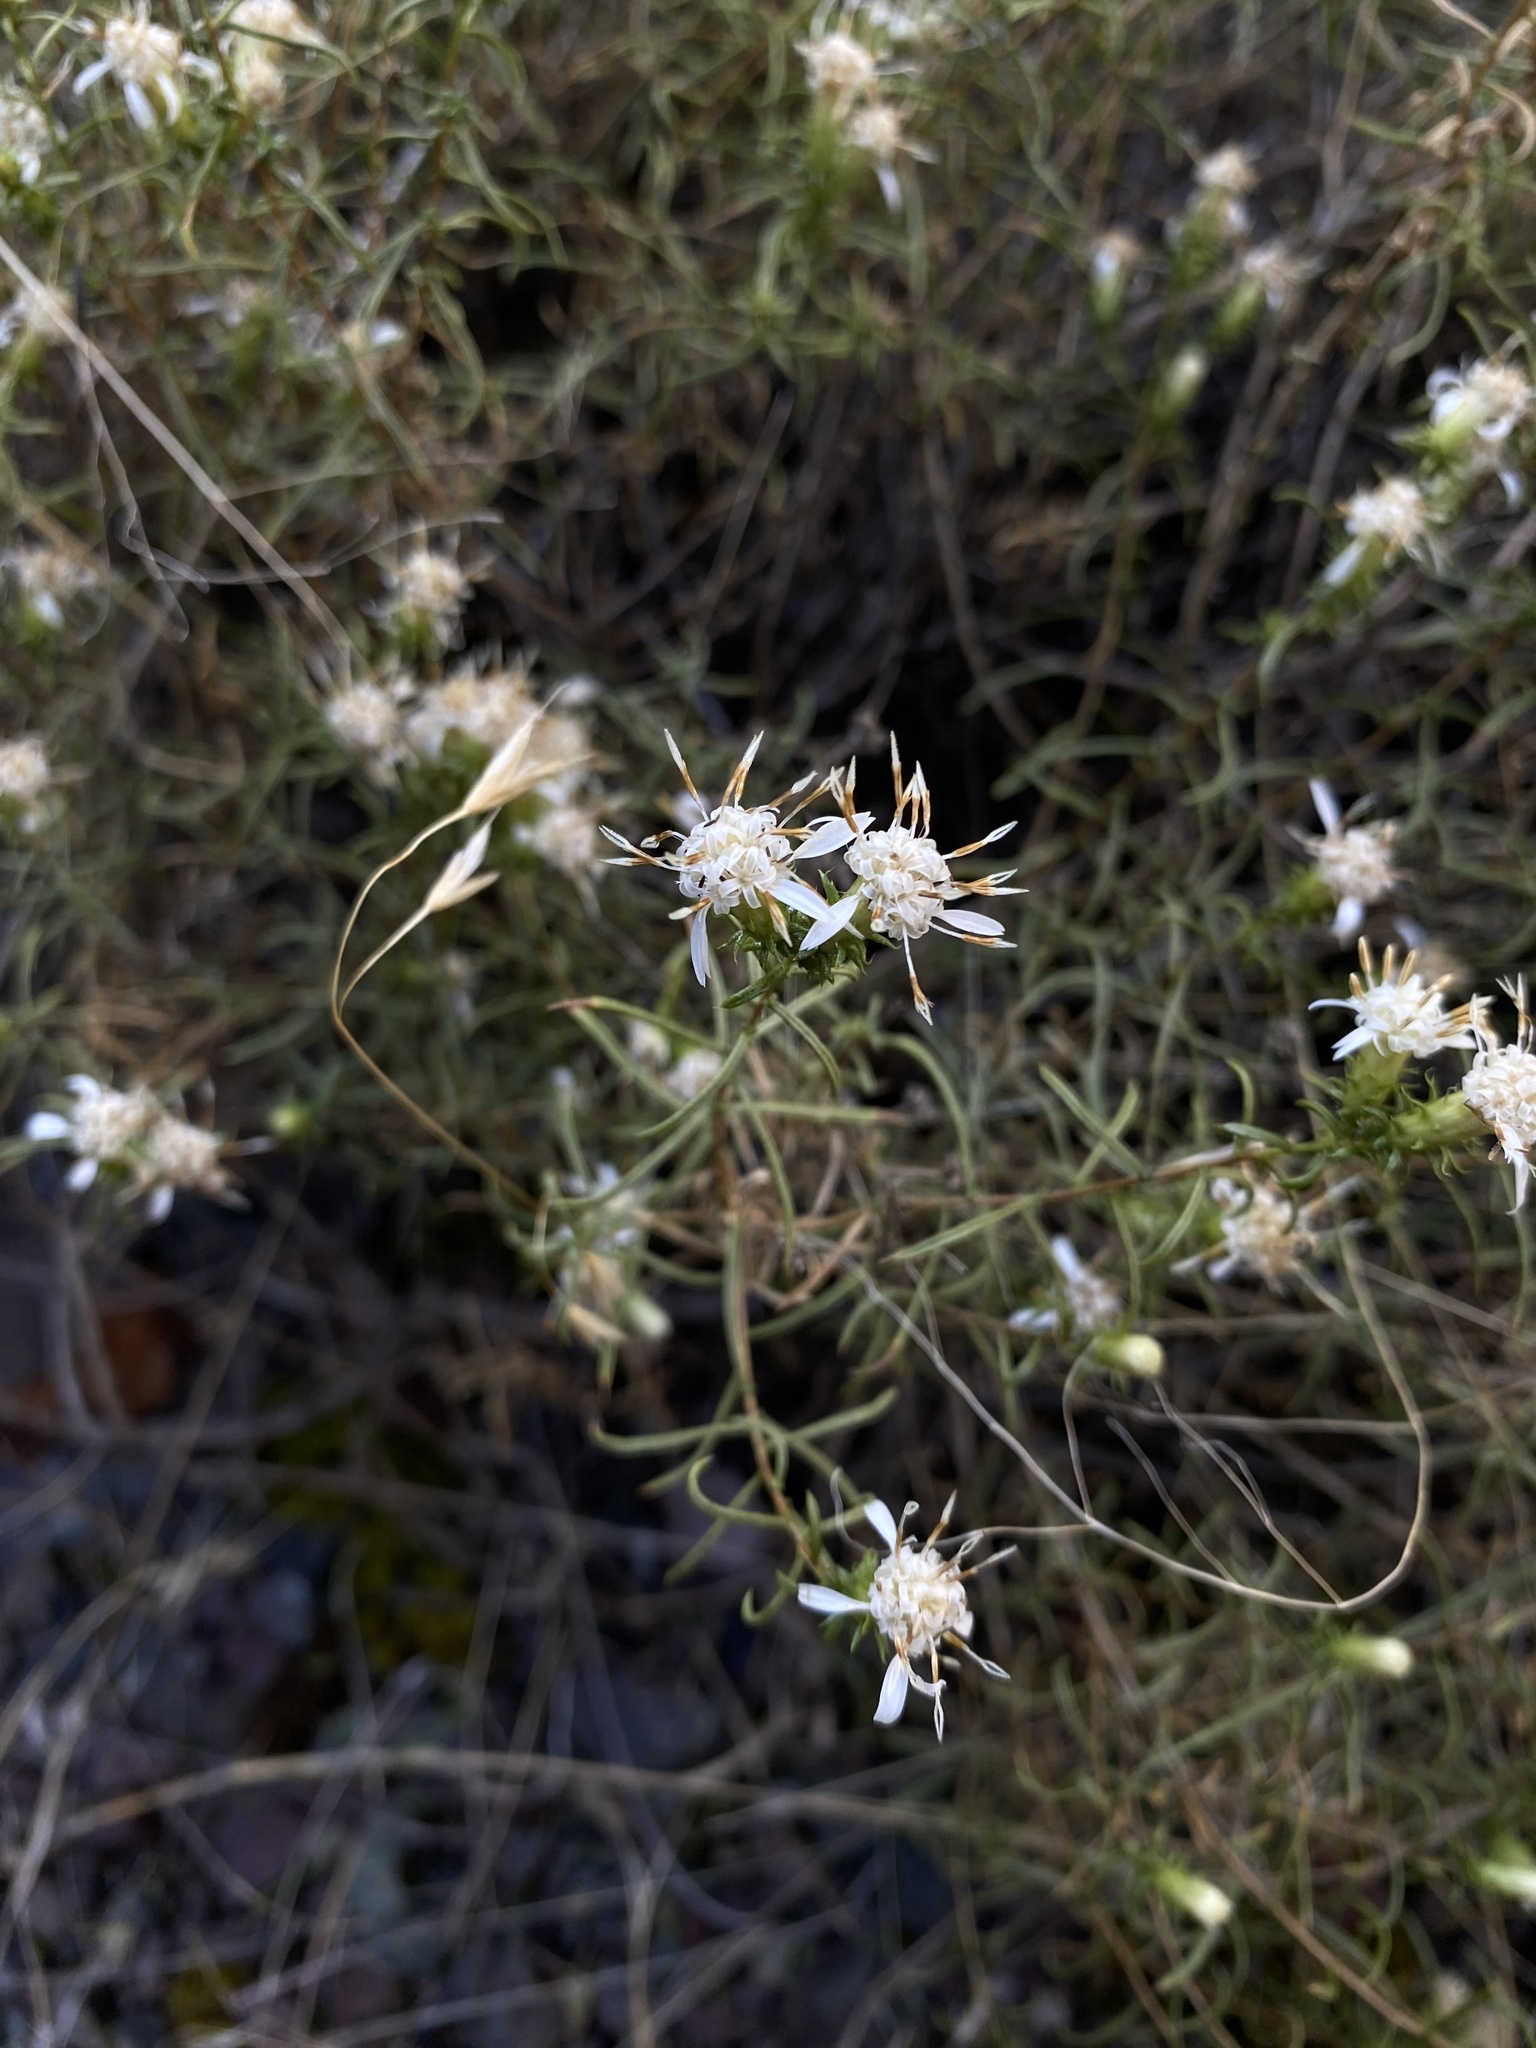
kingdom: Plantae
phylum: Tracheophyta
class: Magnoliopsida
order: Asterales
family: Asteraceae
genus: Ericameria
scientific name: Ericameria resinosa
